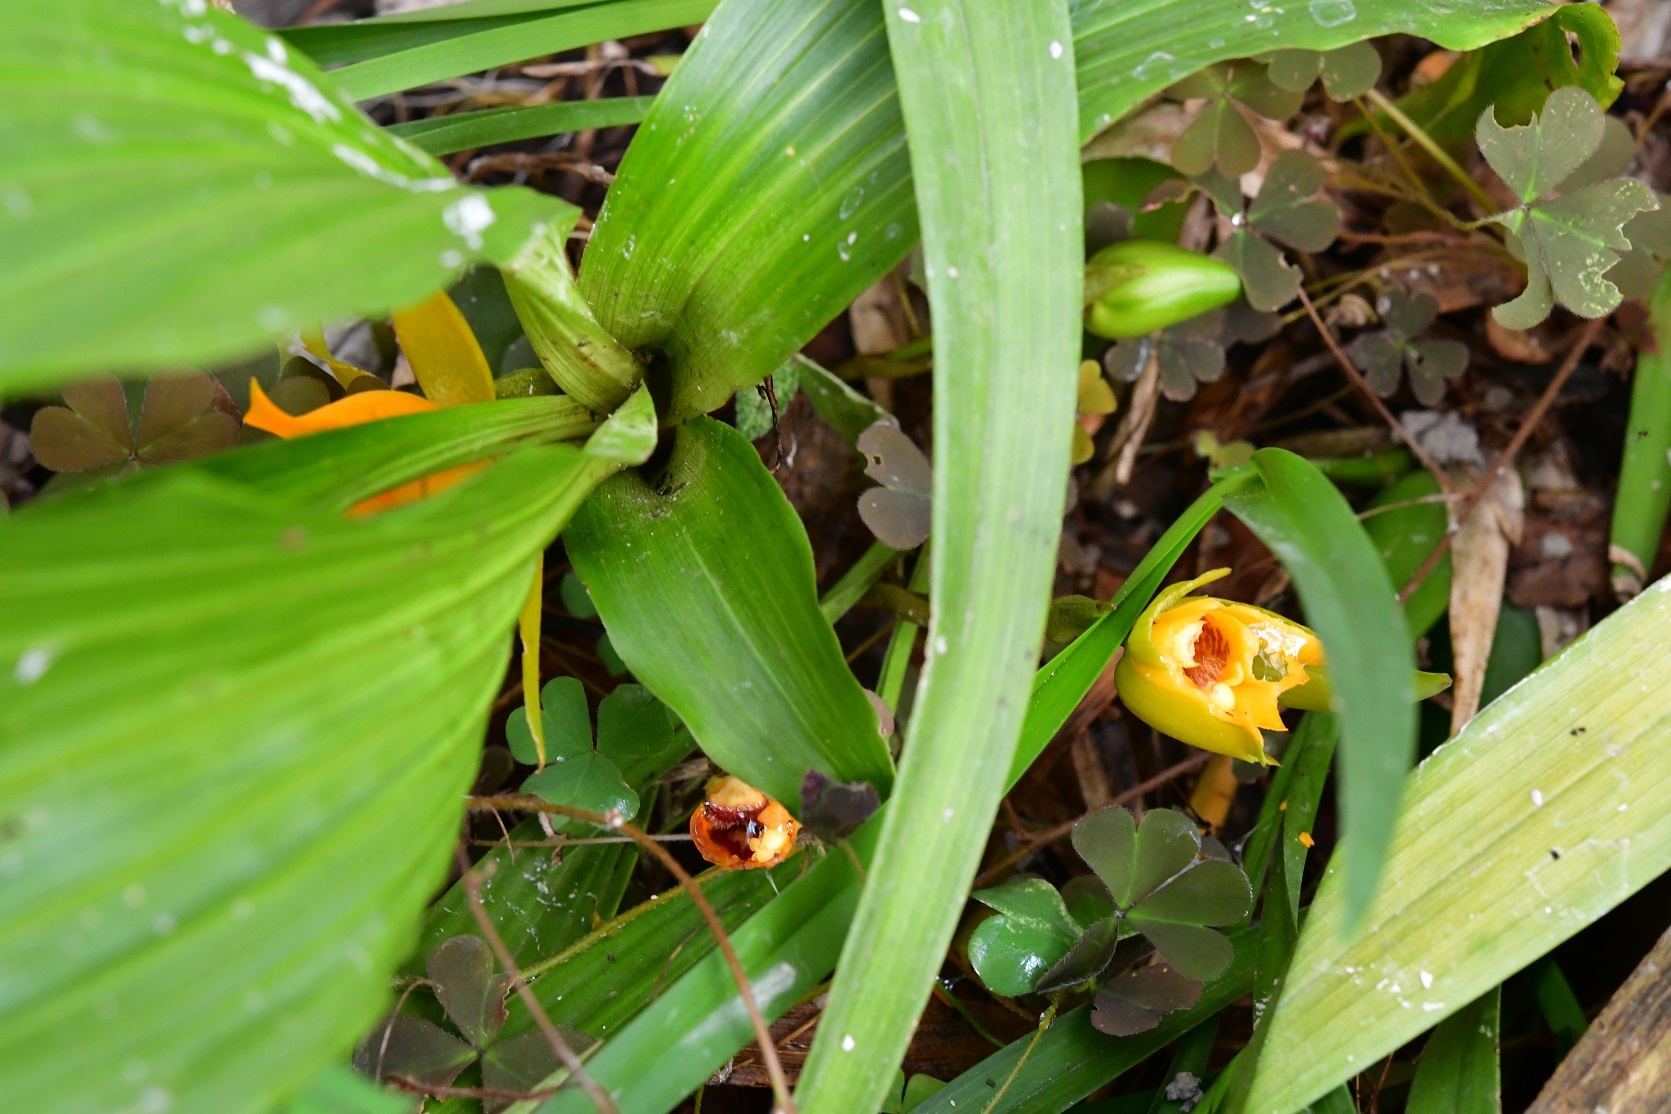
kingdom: Plantae
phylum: Tracheophyta
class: Liliopsida
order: Asparagales
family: Orchidaceae
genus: Lycaste
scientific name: Lycaste cruenta
